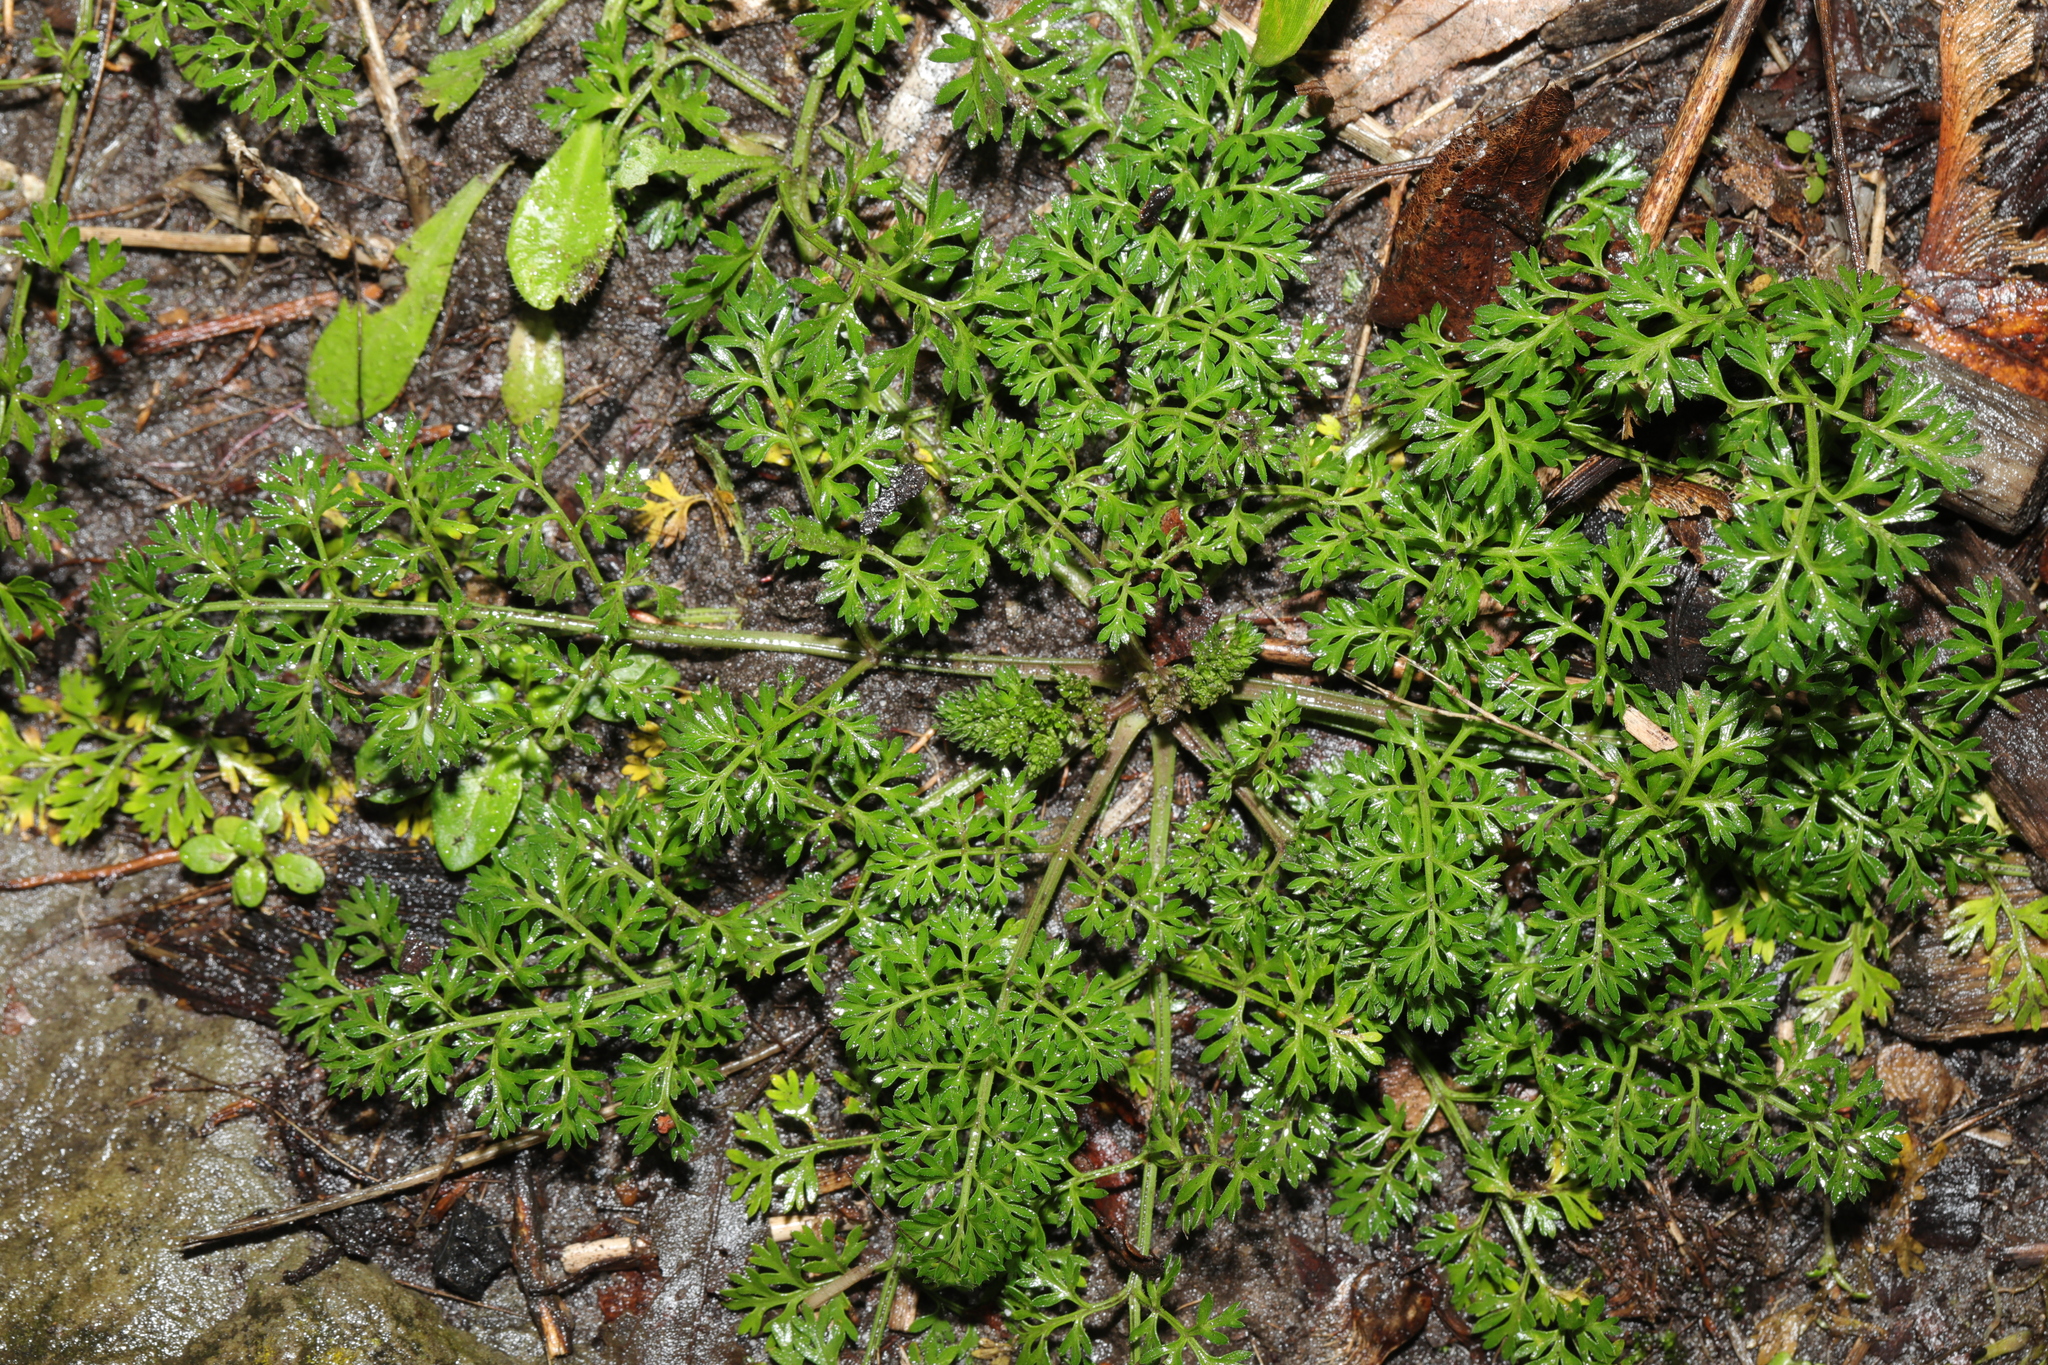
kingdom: Plantae
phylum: Tracheophyta
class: Magnoliopsida
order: Apiales
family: Apiaceae
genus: Daucus
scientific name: Daucus carota
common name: Wild carrot
